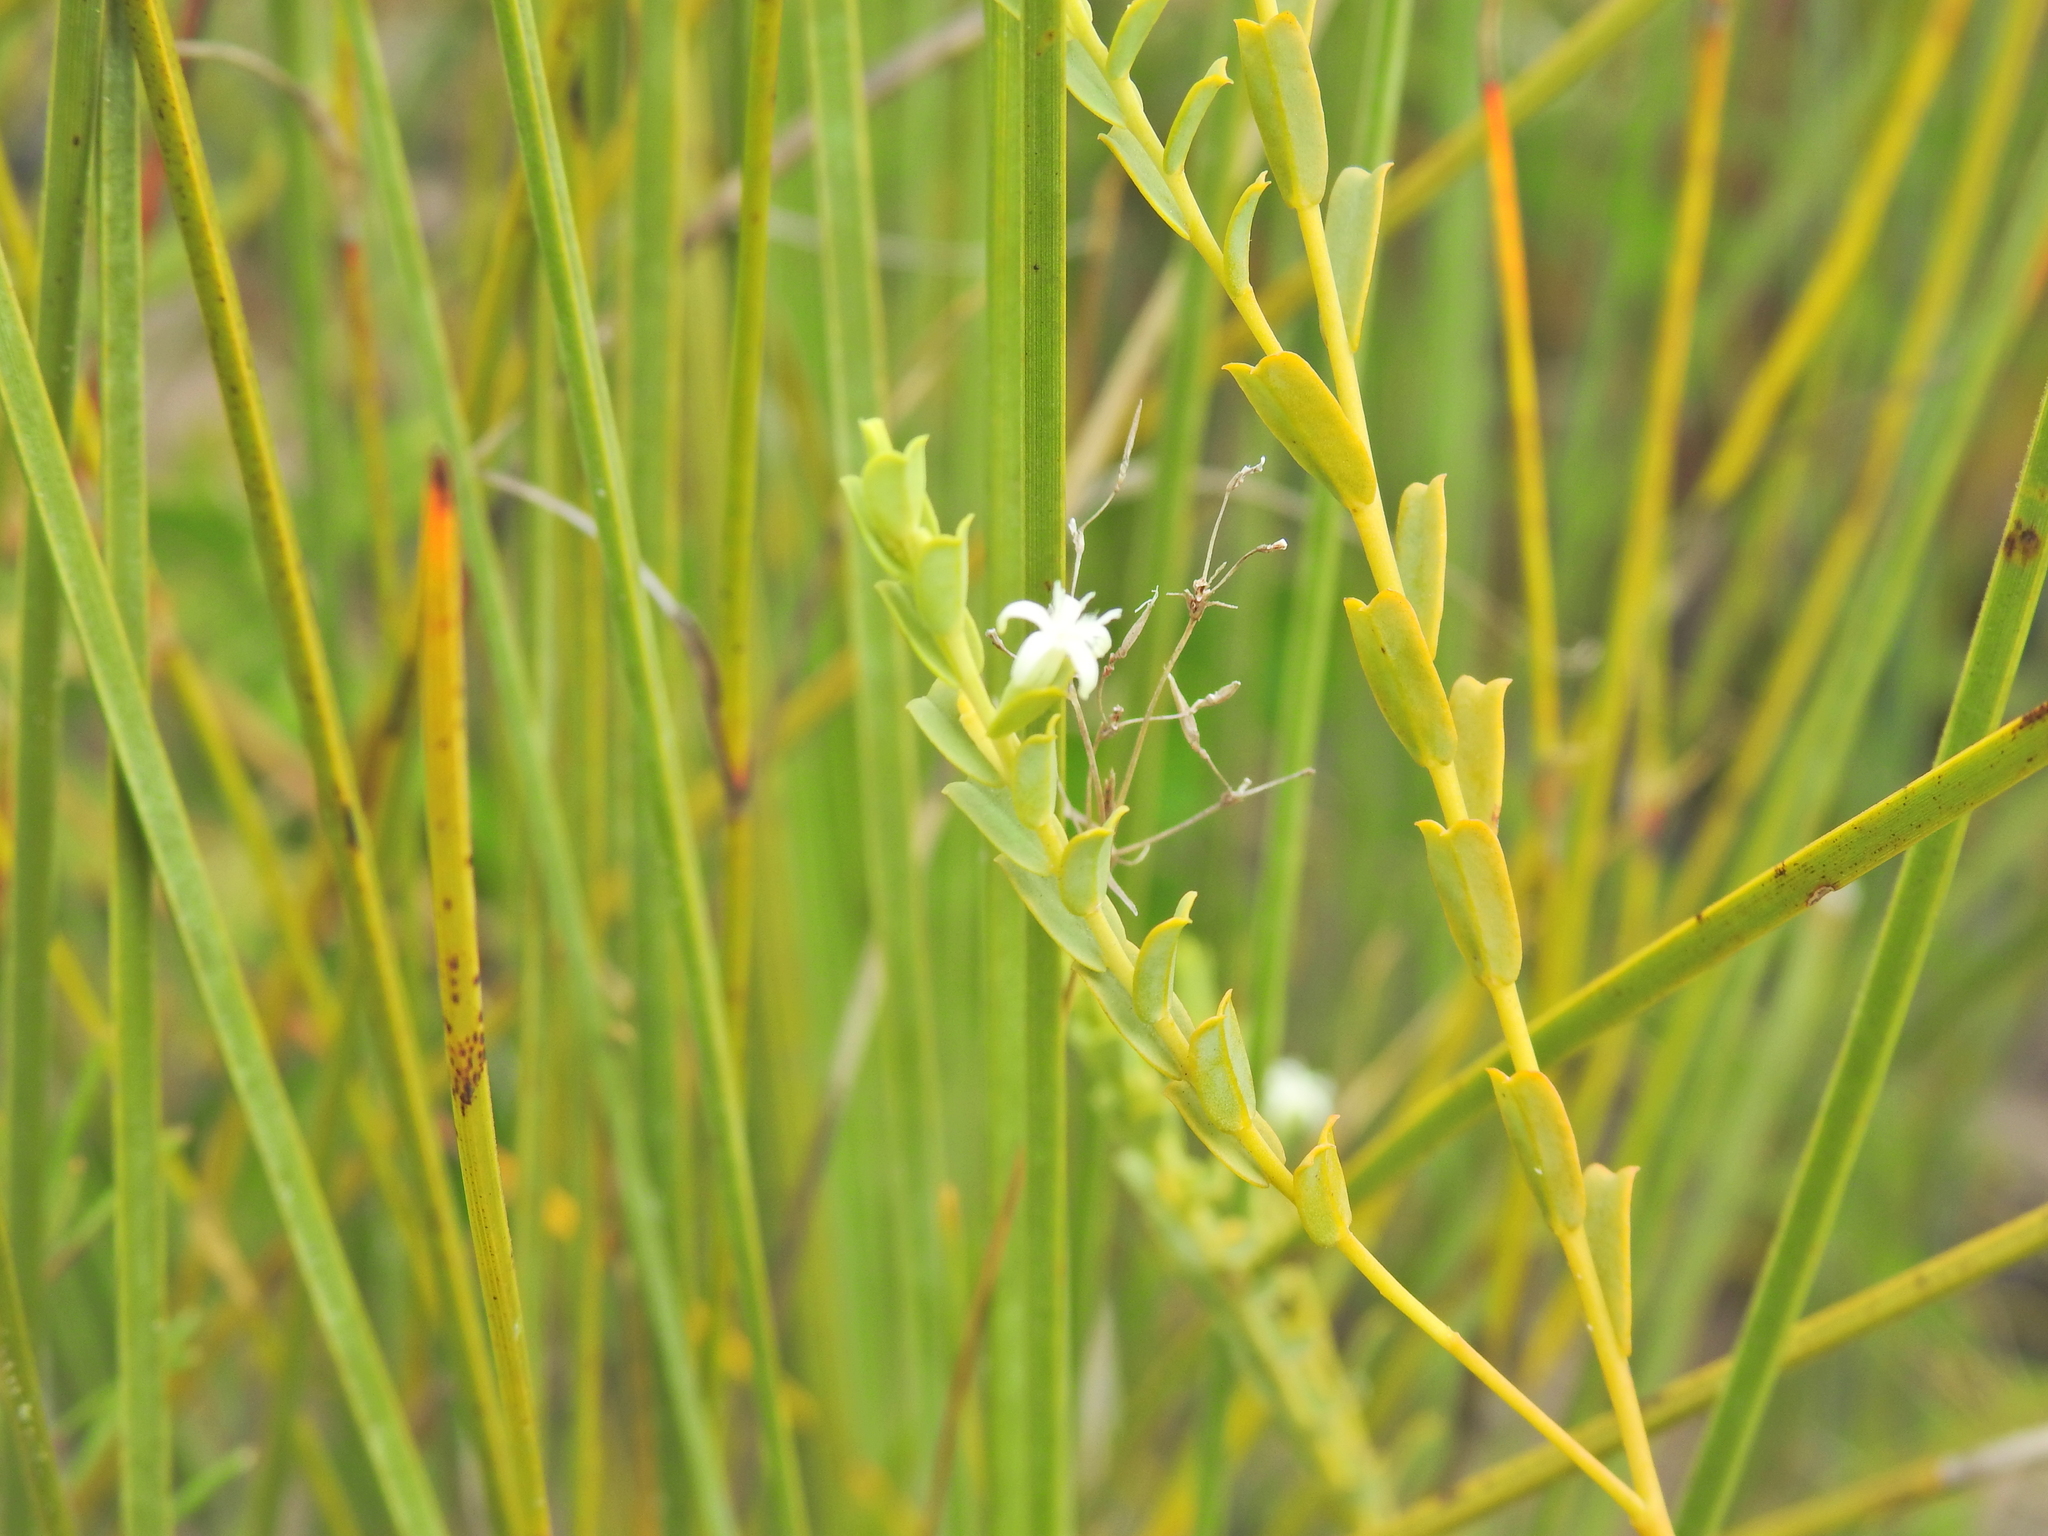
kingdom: Plantae
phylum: Tracheophyta
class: Magnoliopsida
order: Santalales
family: Olacaceae
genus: Olax
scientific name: Olax retusa
